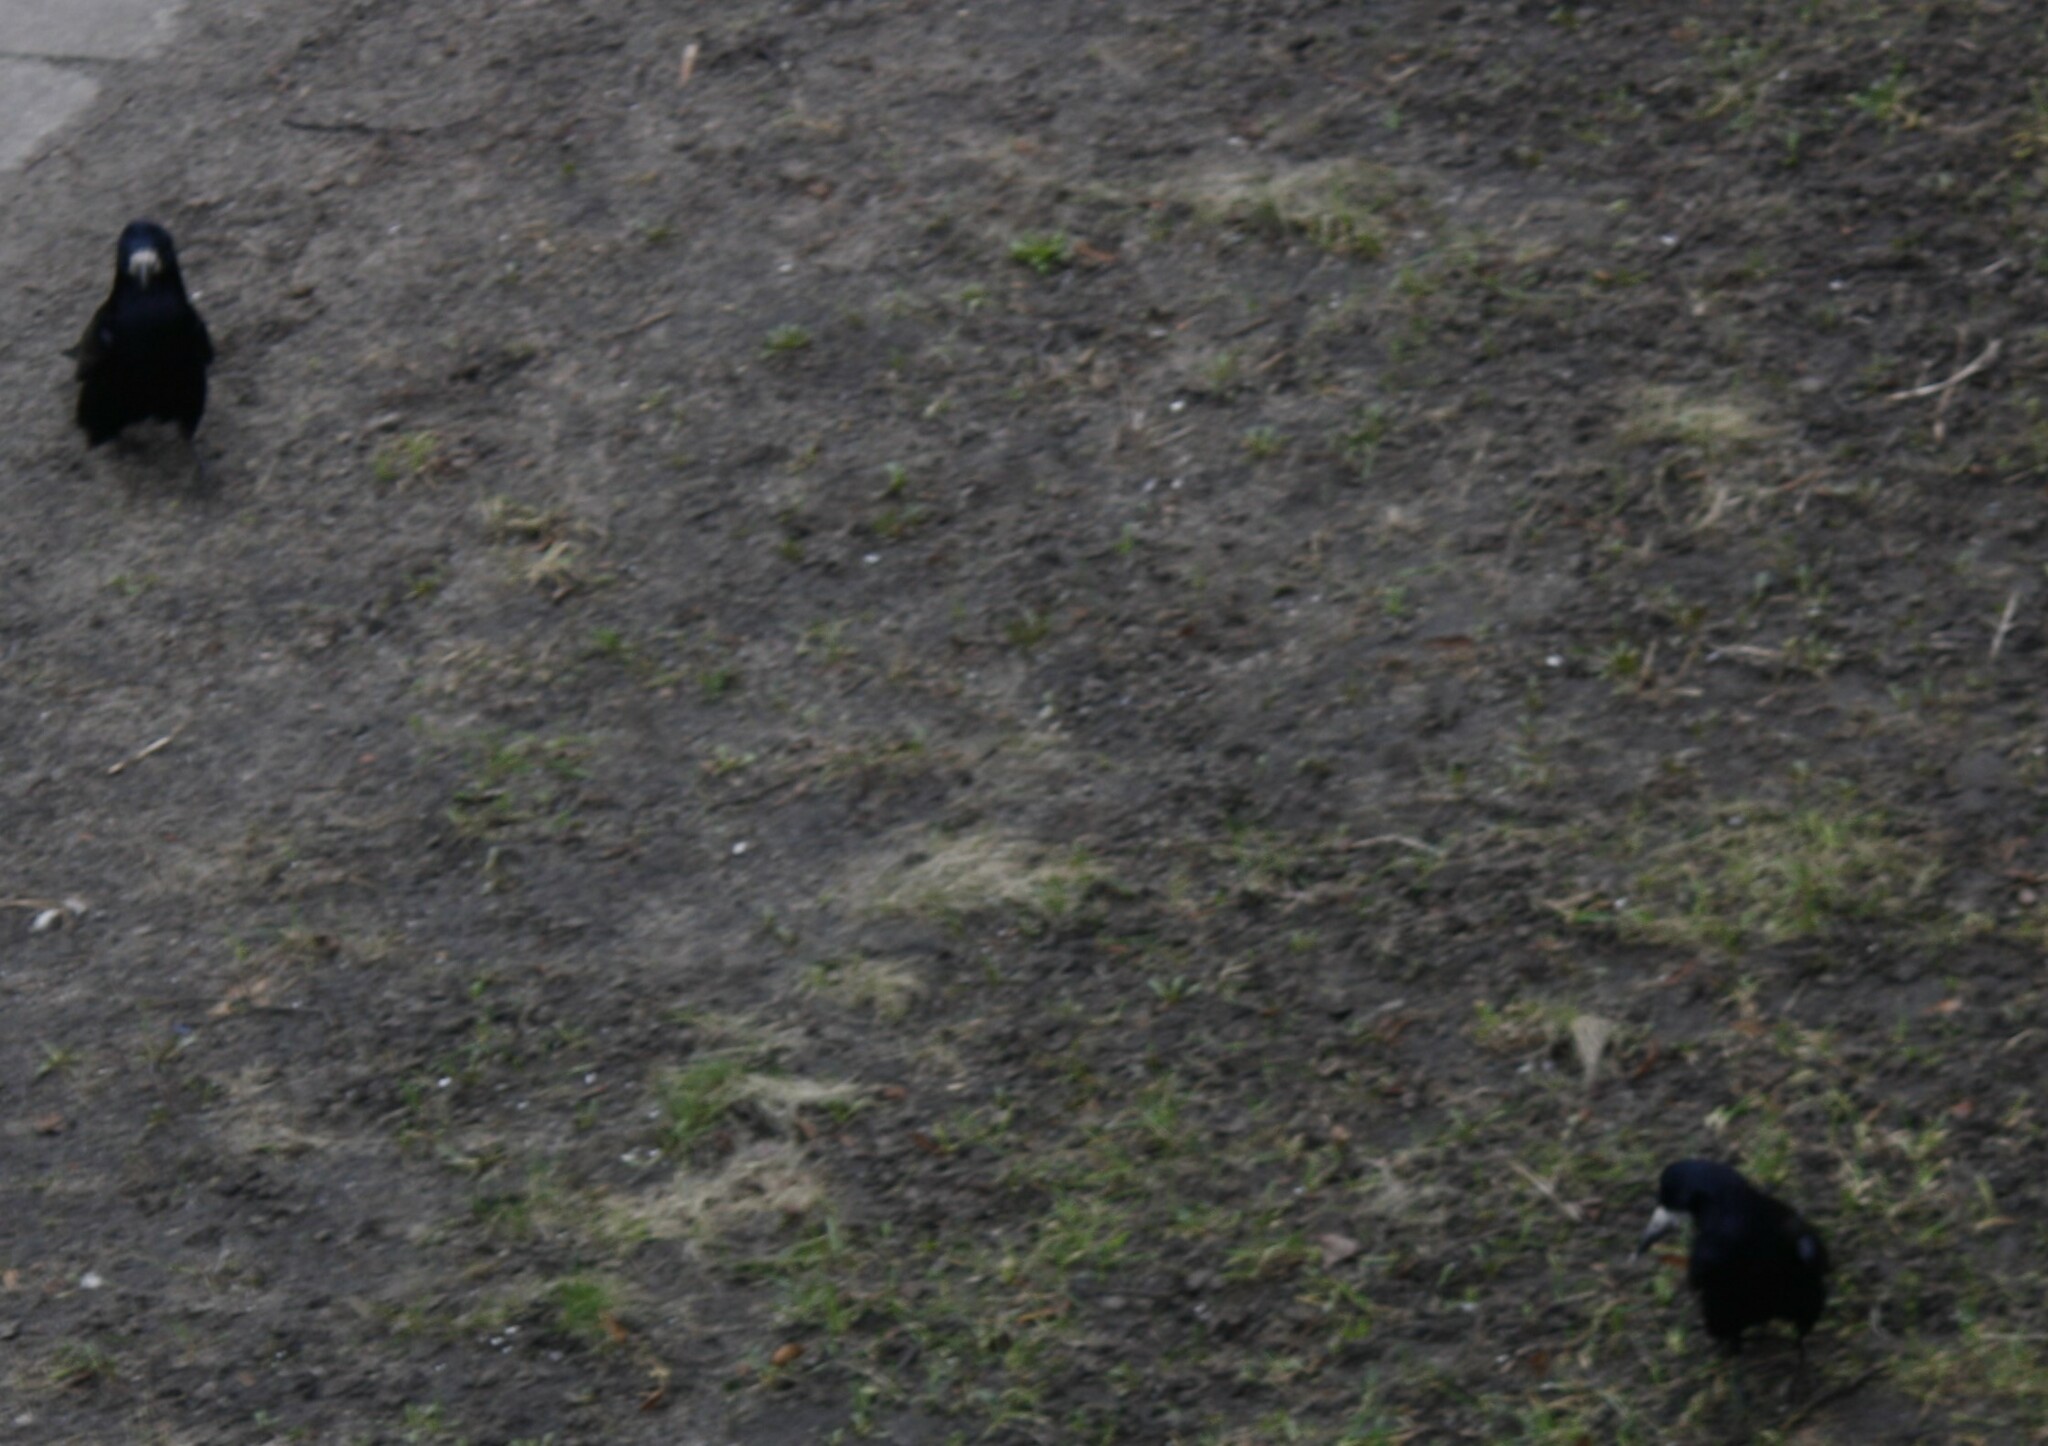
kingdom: Animalia
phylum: Chordata
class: Aves
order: Passeriformes
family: Corvidae
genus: Corvus
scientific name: Corvus frugilegus
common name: Rook
